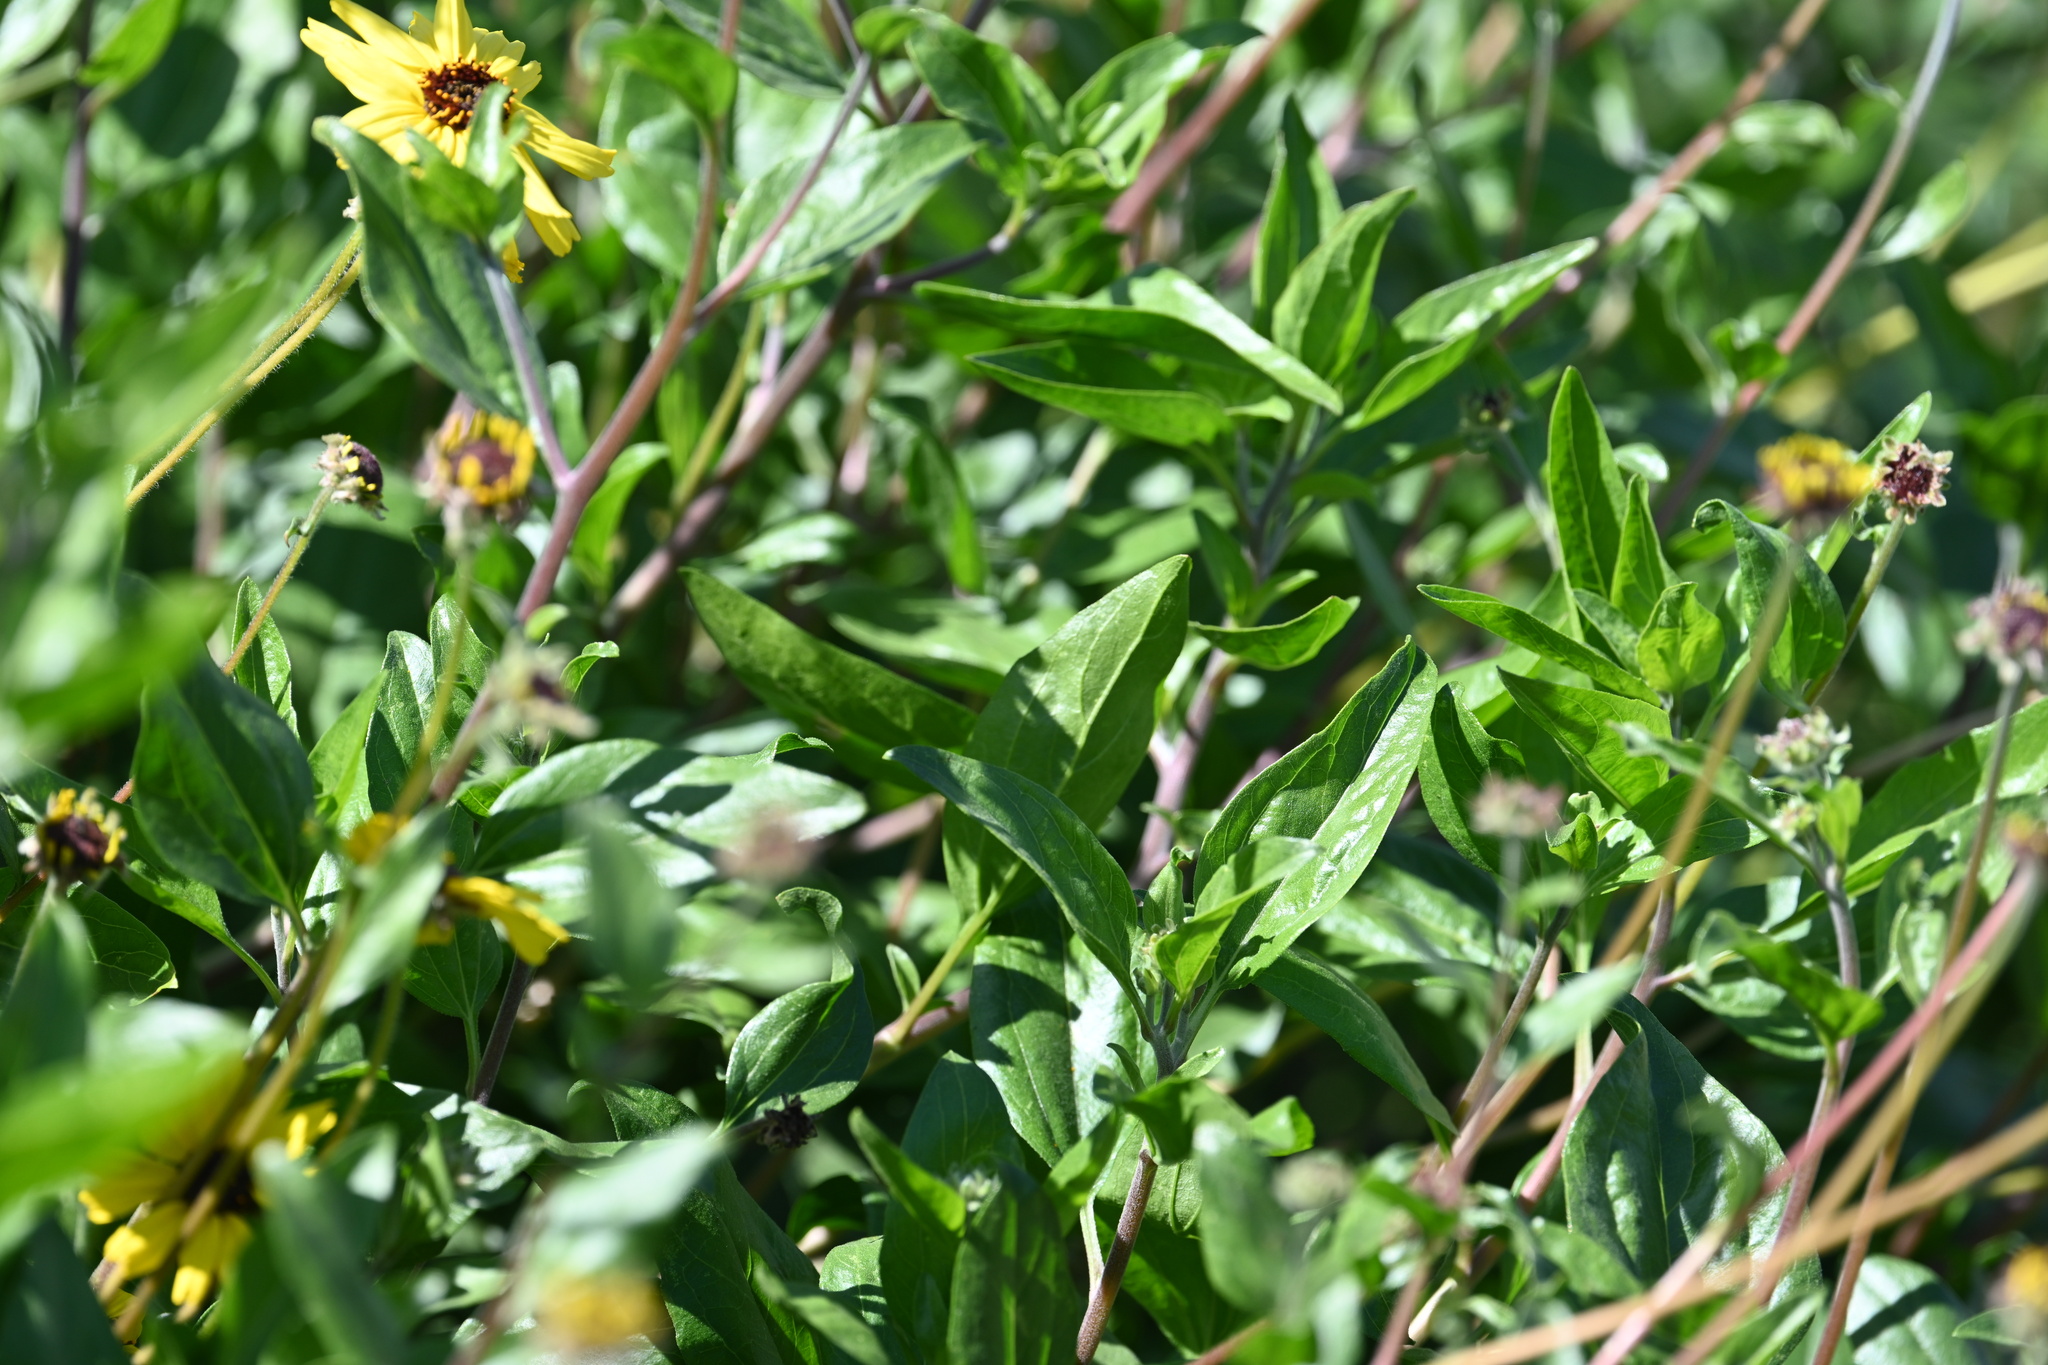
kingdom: Plantae
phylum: Tracheophyta
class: Magnoliopsida
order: Asterales
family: Asteraceae
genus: Encelia
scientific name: Encelia californica
